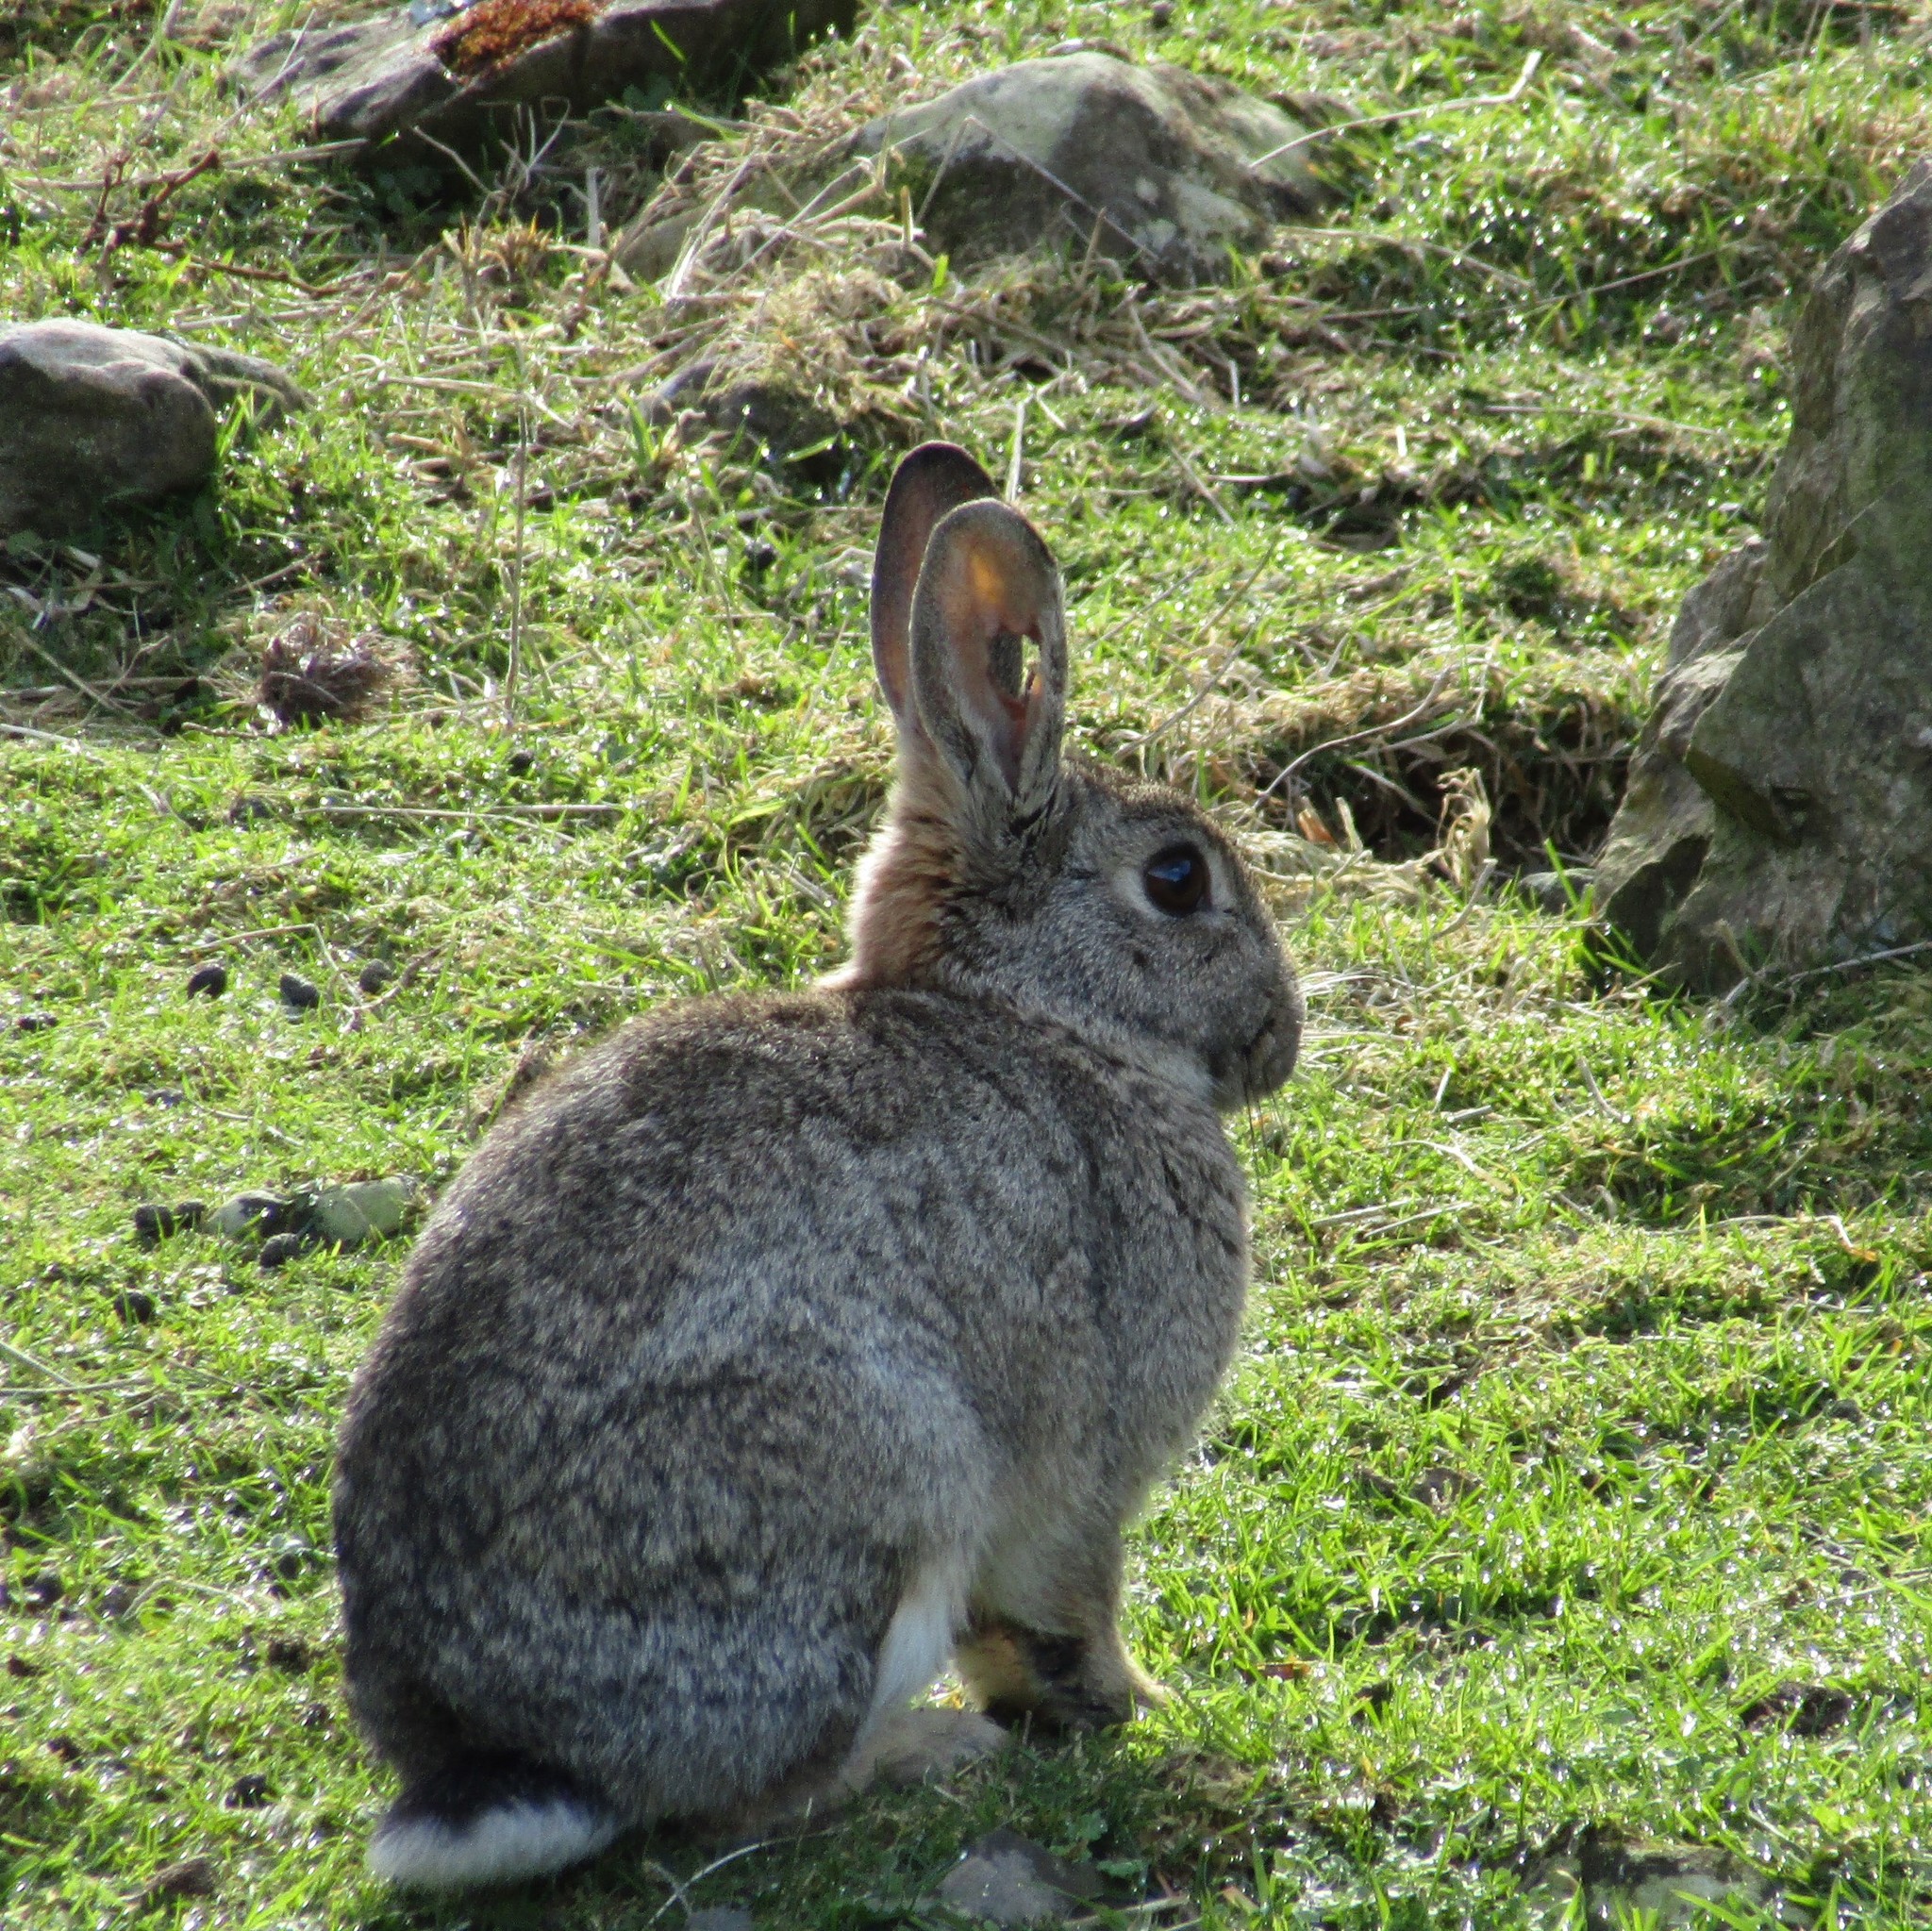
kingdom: Animalia
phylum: Chordata
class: Mammalia
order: Lagomorpha
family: Leporidae
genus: Oryctolagus
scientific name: Oryctolagus cuniculus
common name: European rabbit
